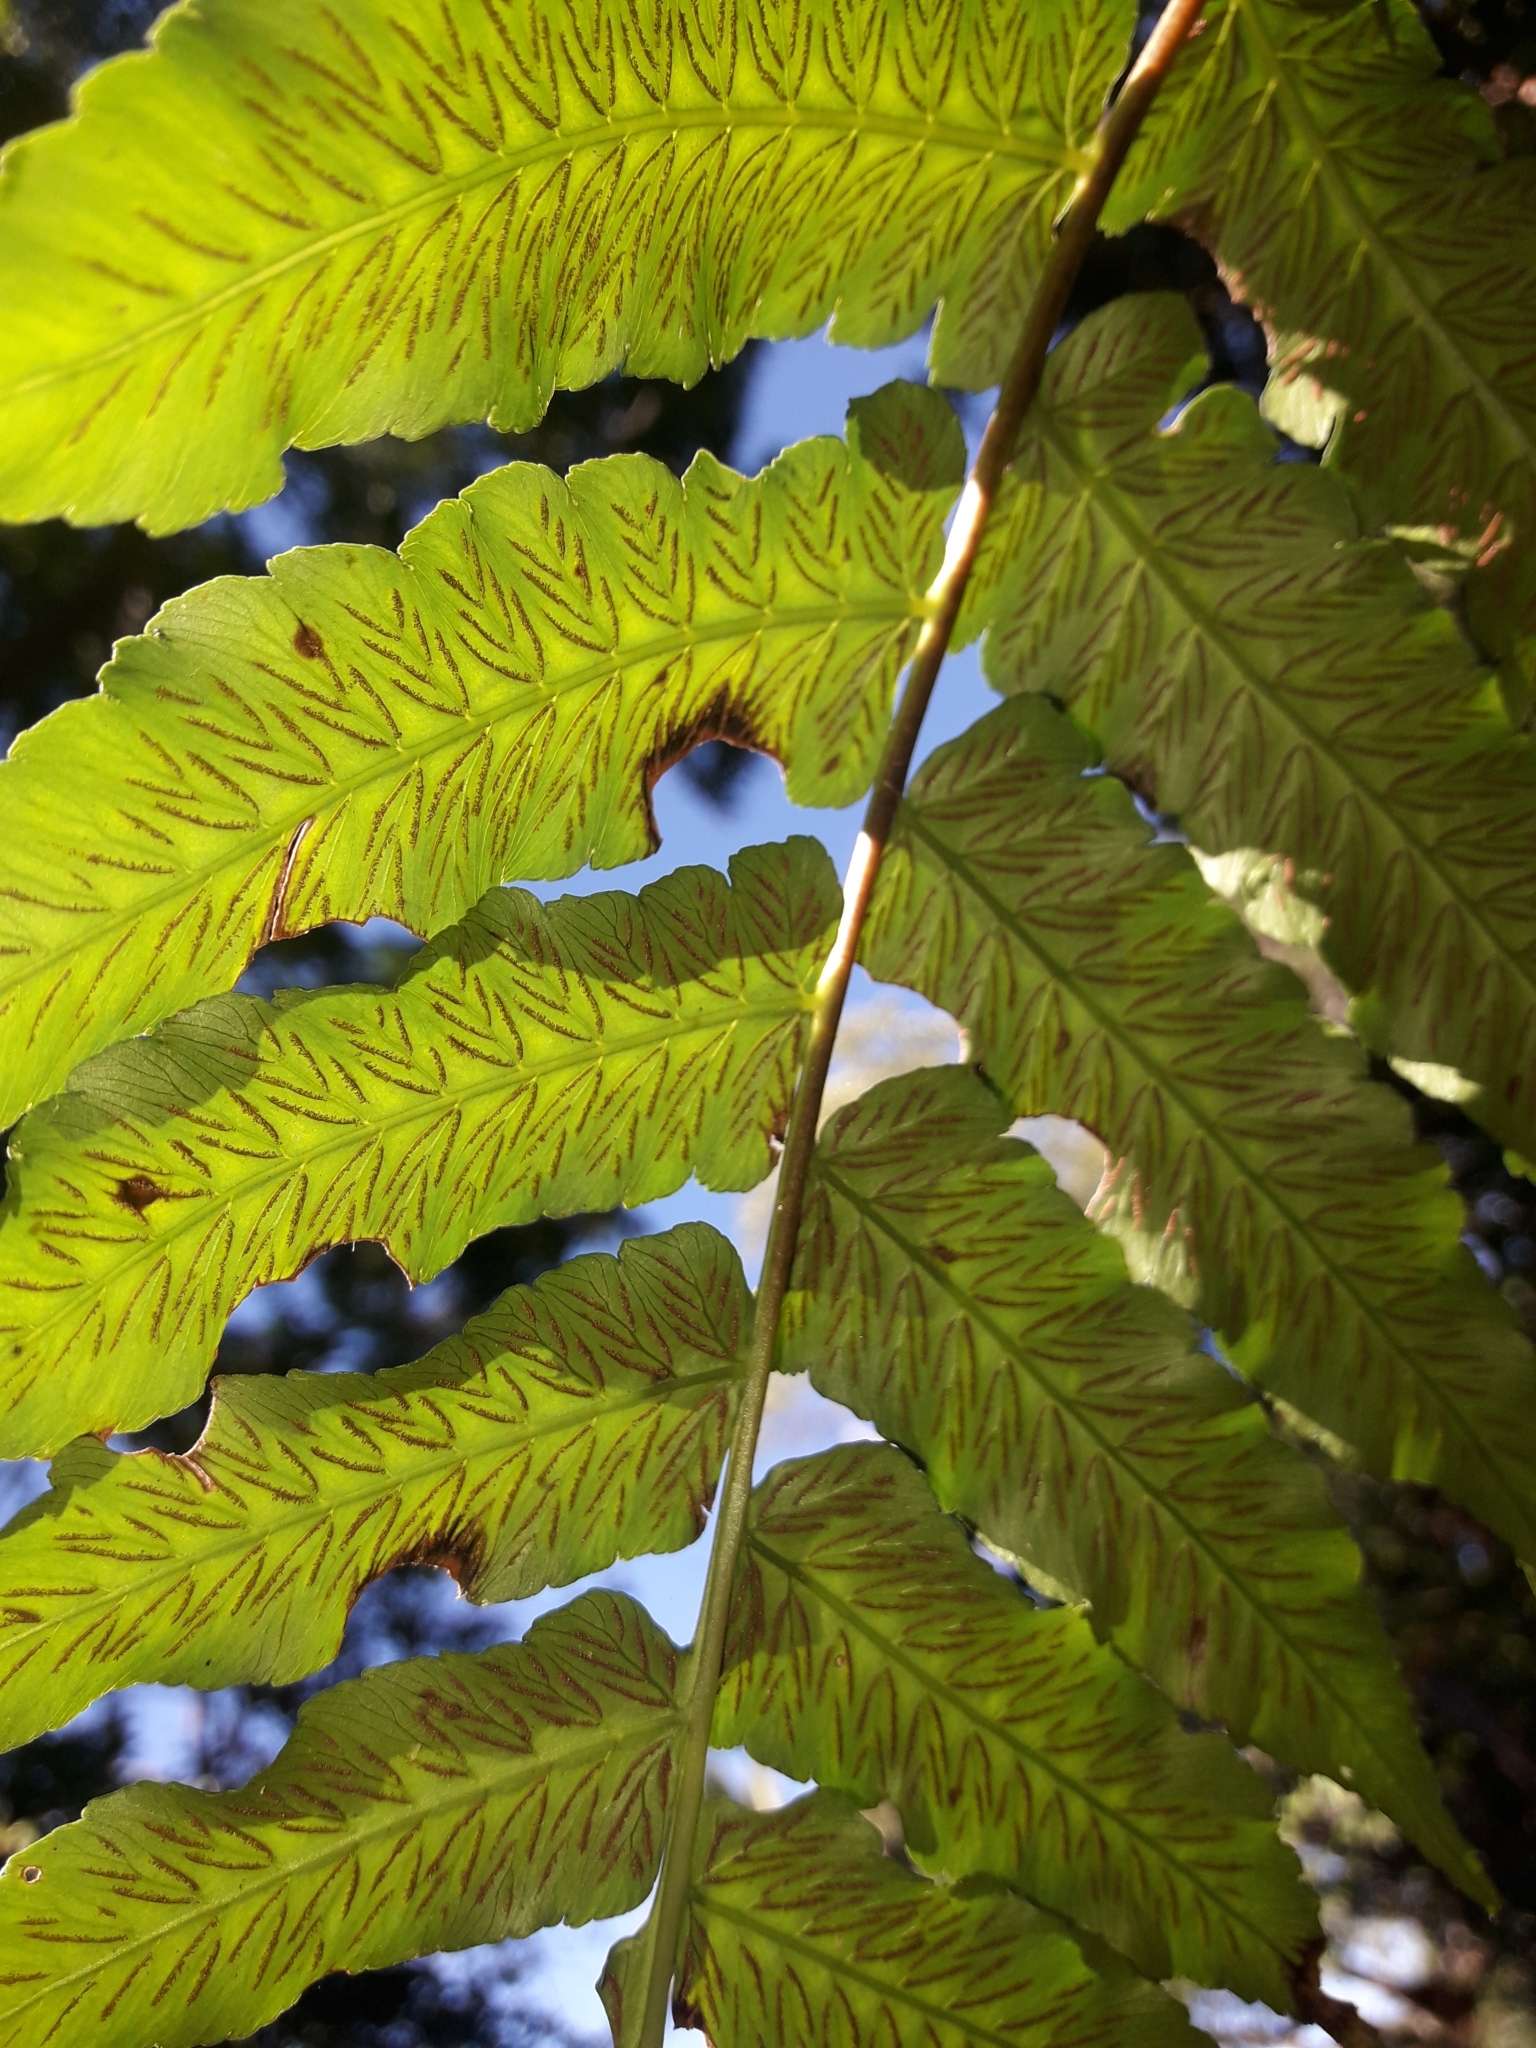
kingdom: Plantae
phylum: Tracheophyta
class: Polypodiopsida
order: Polypodiales
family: Athyriaceae
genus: Diplazium
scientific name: Diplazium echinatum
